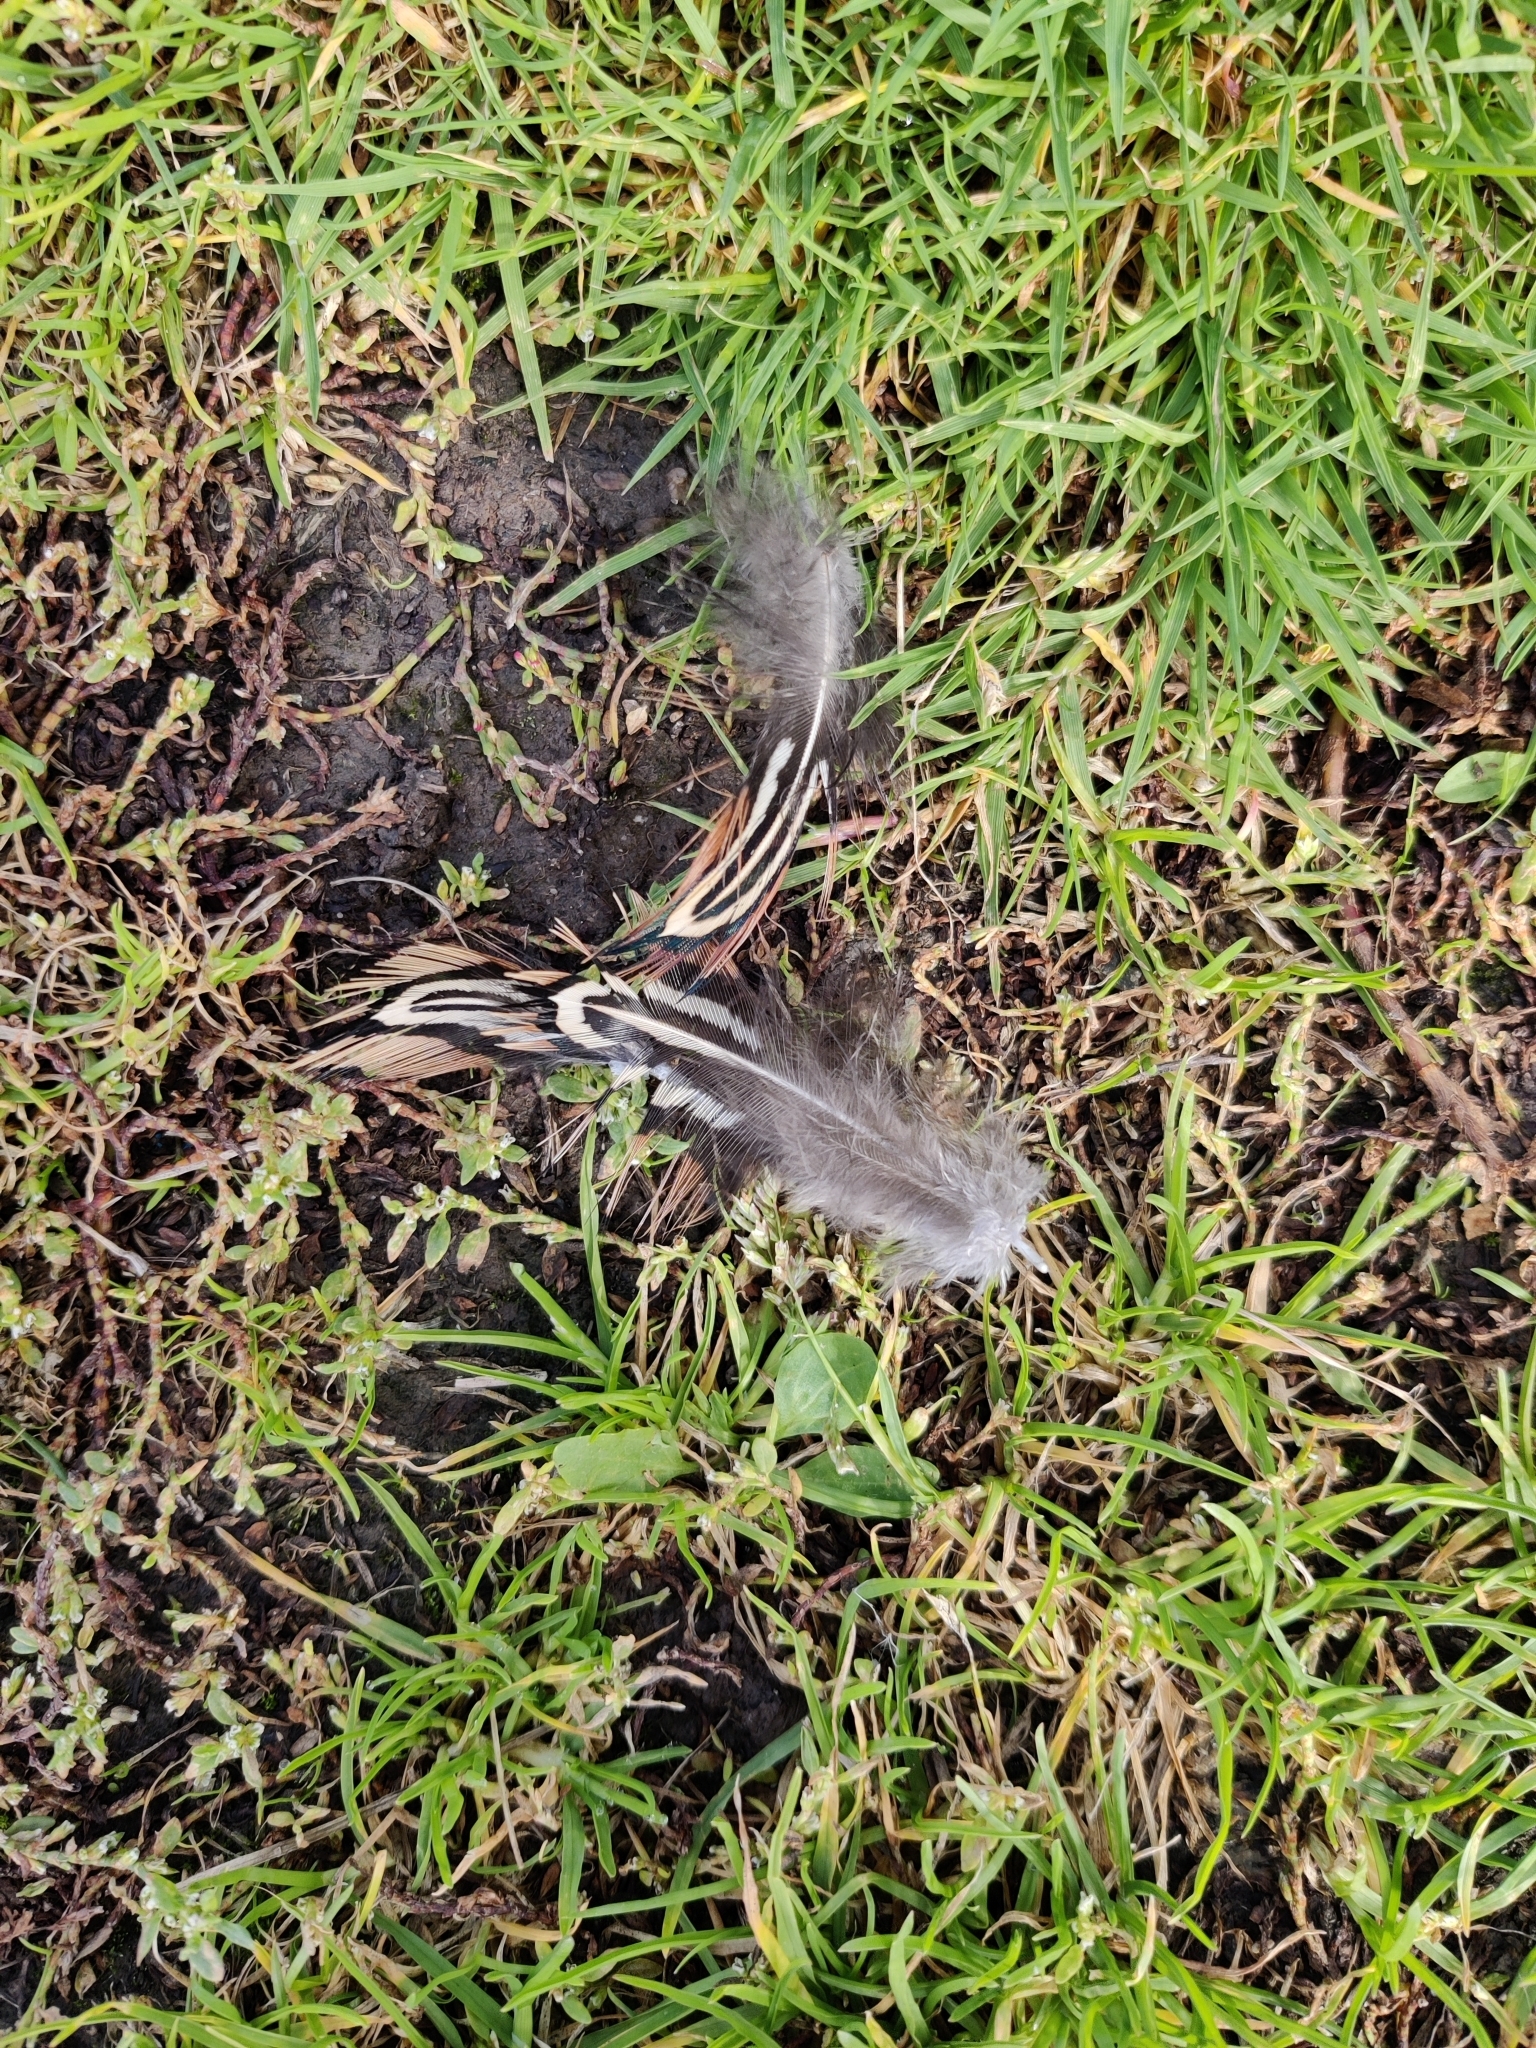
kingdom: Animalia
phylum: Chordata
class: Aves
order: Galliformes
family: Phasianidae
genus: Phasianus
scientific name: Phasianus colchicus
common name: Common pheasant
